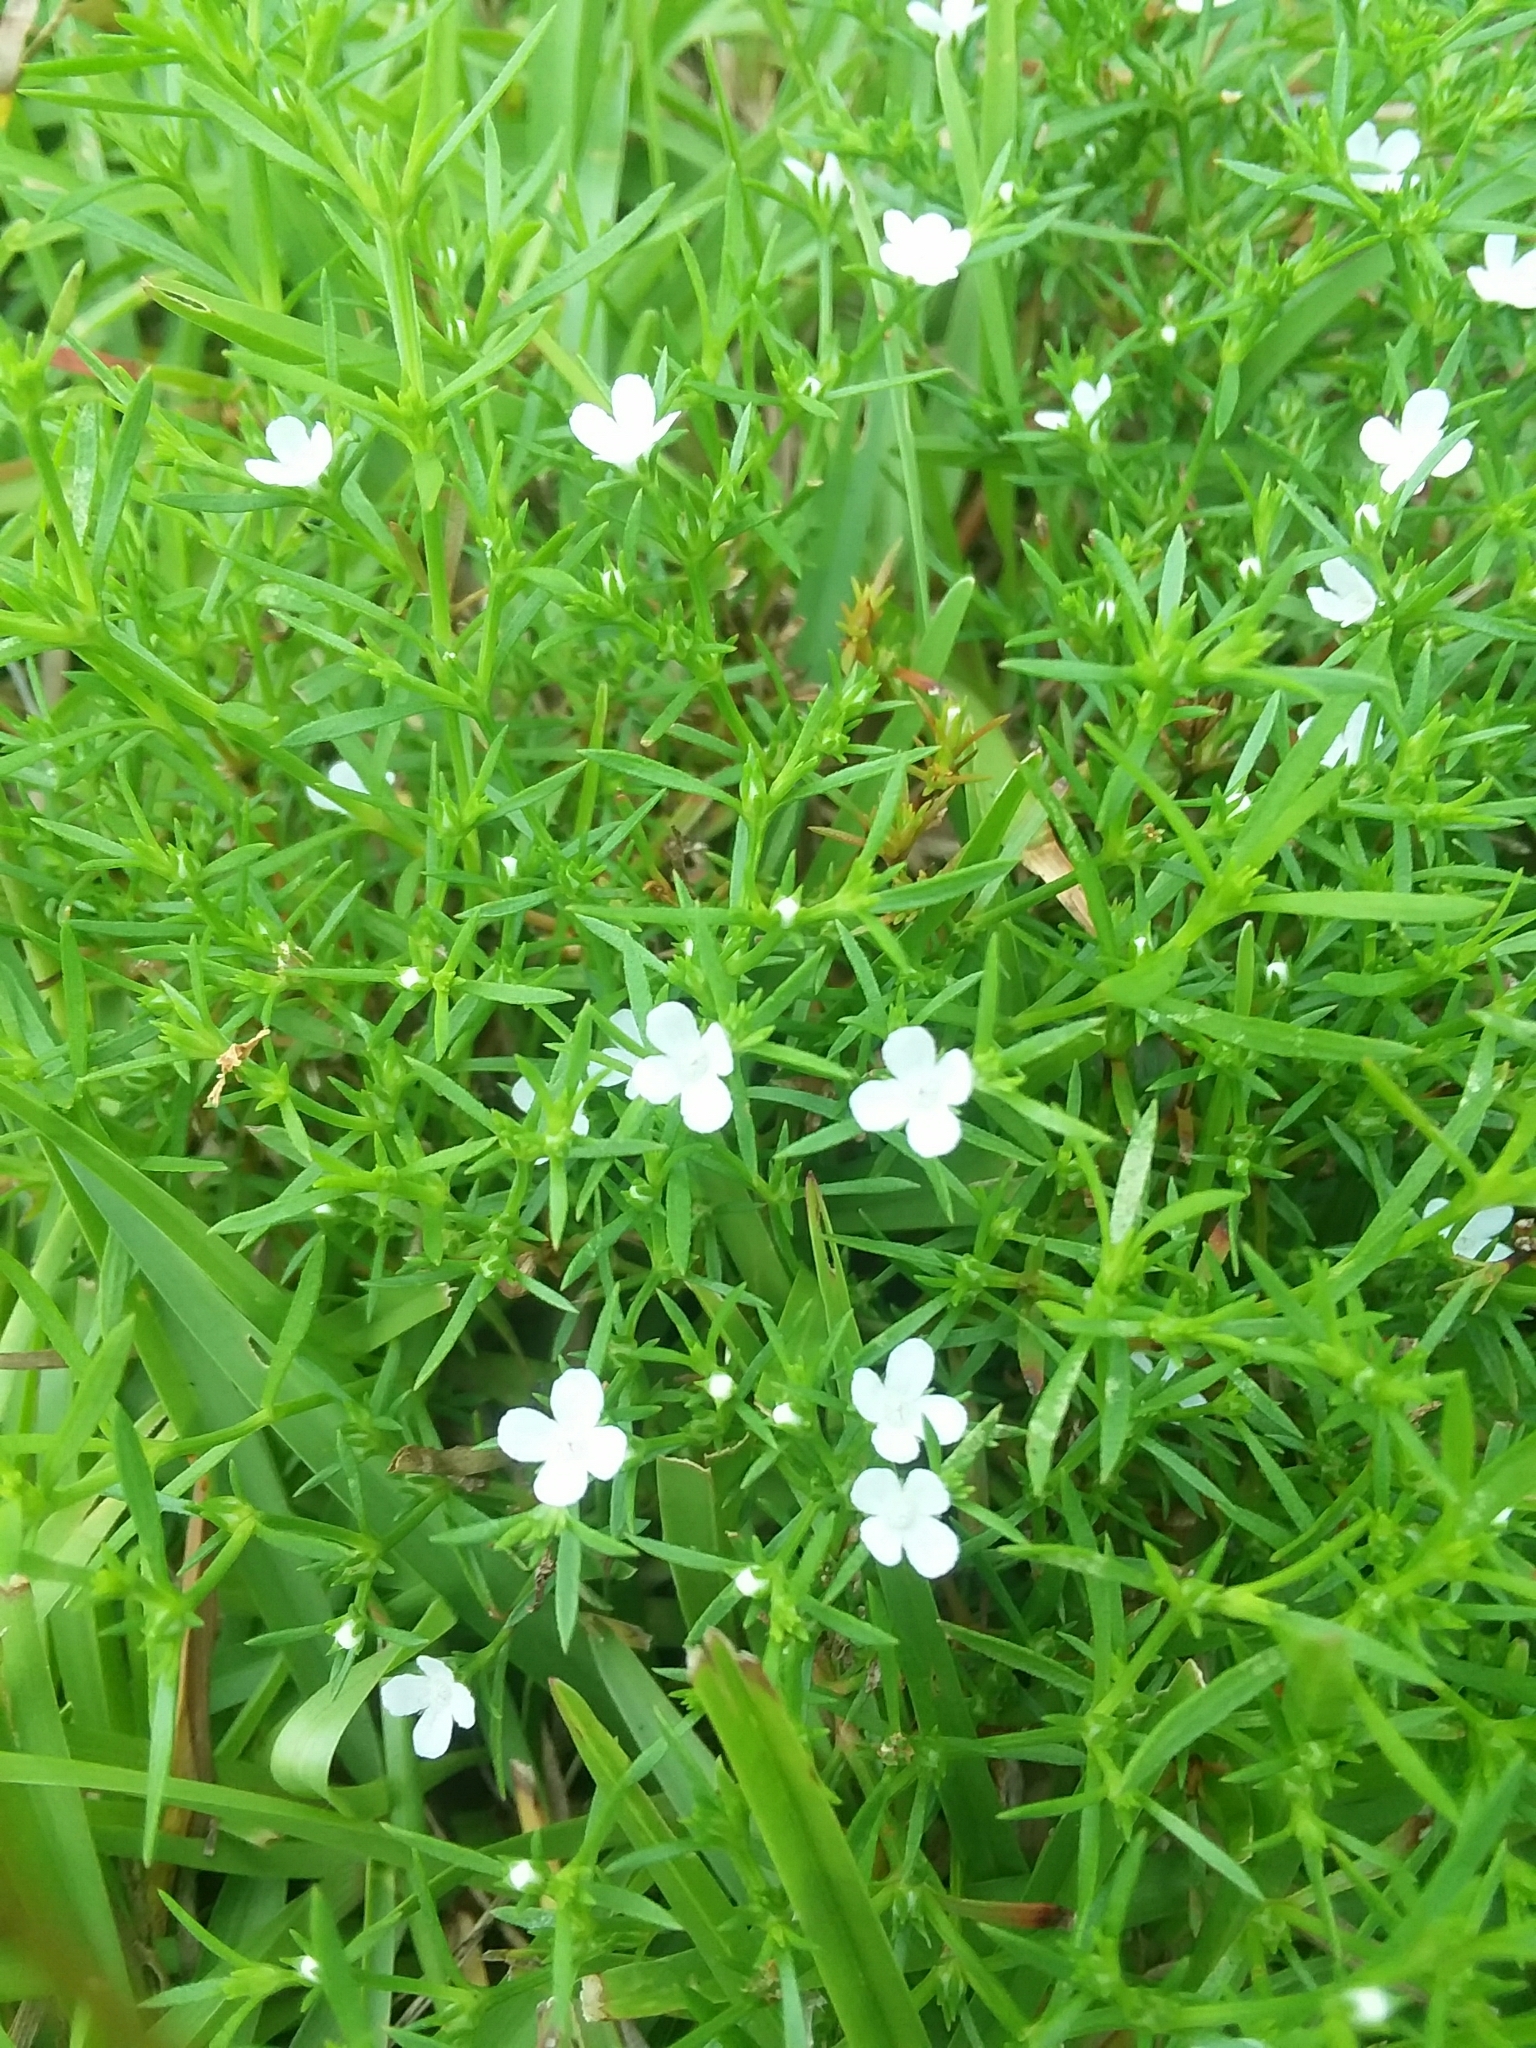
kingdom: Plantae
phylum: Tracheophyta
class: Magnoliopsida
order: Lamiales
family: Tetrachondraceae
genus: Polypremum
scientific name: Polypremum procumbens
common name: Juniper-leaf
